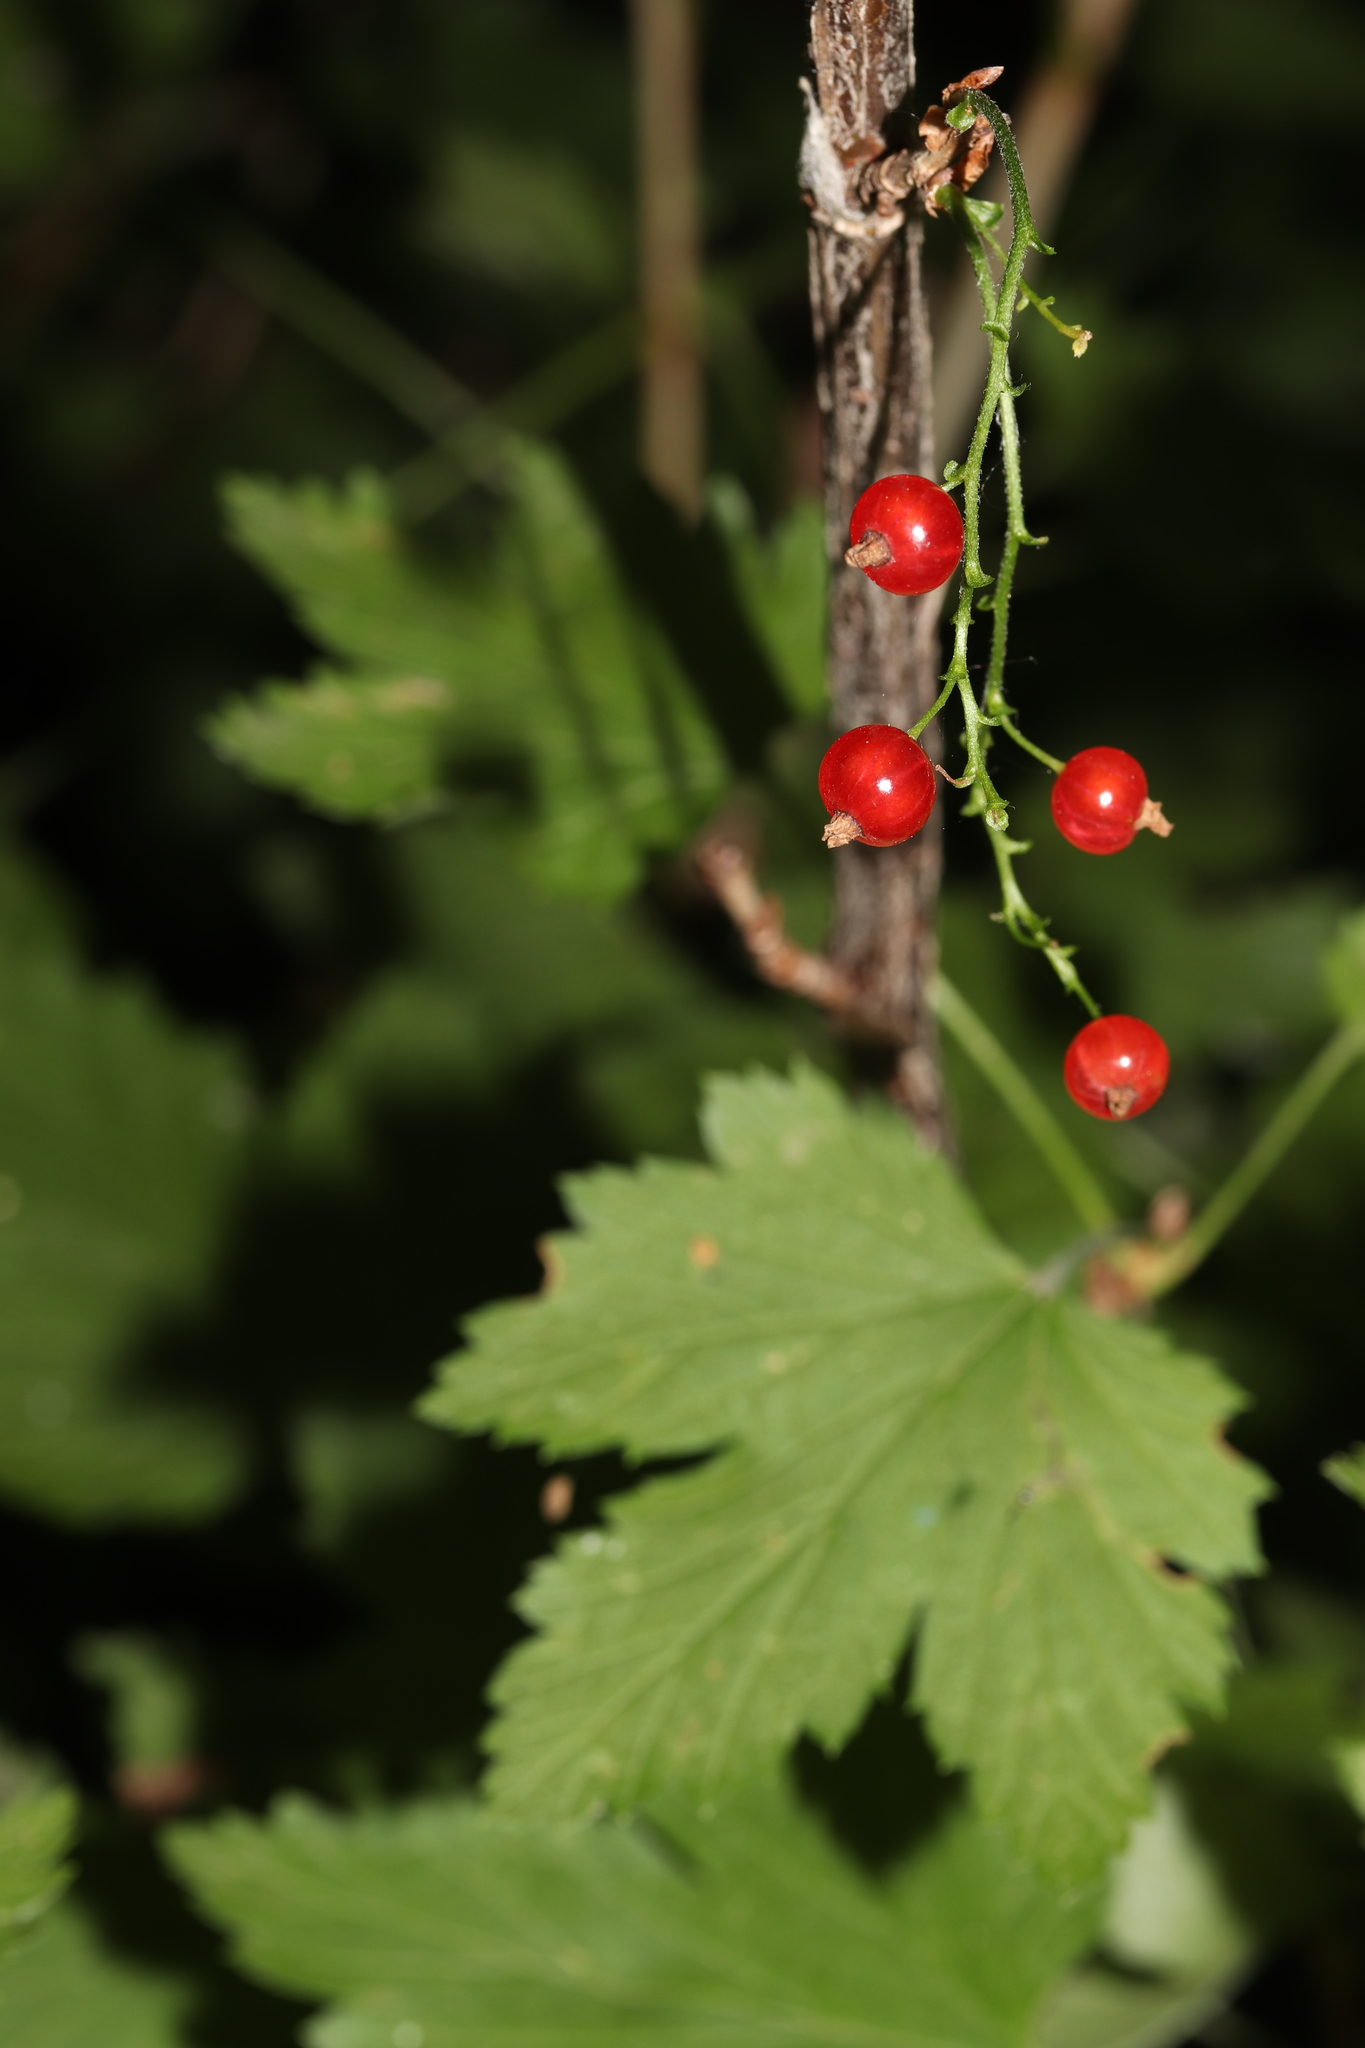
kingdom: Plantae
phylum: Tracheophyta
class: Magnoliopsida
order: Saxifragales
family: Grossulariaceae
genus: Ribes
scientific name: Ribes rubrum
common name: Red currant
